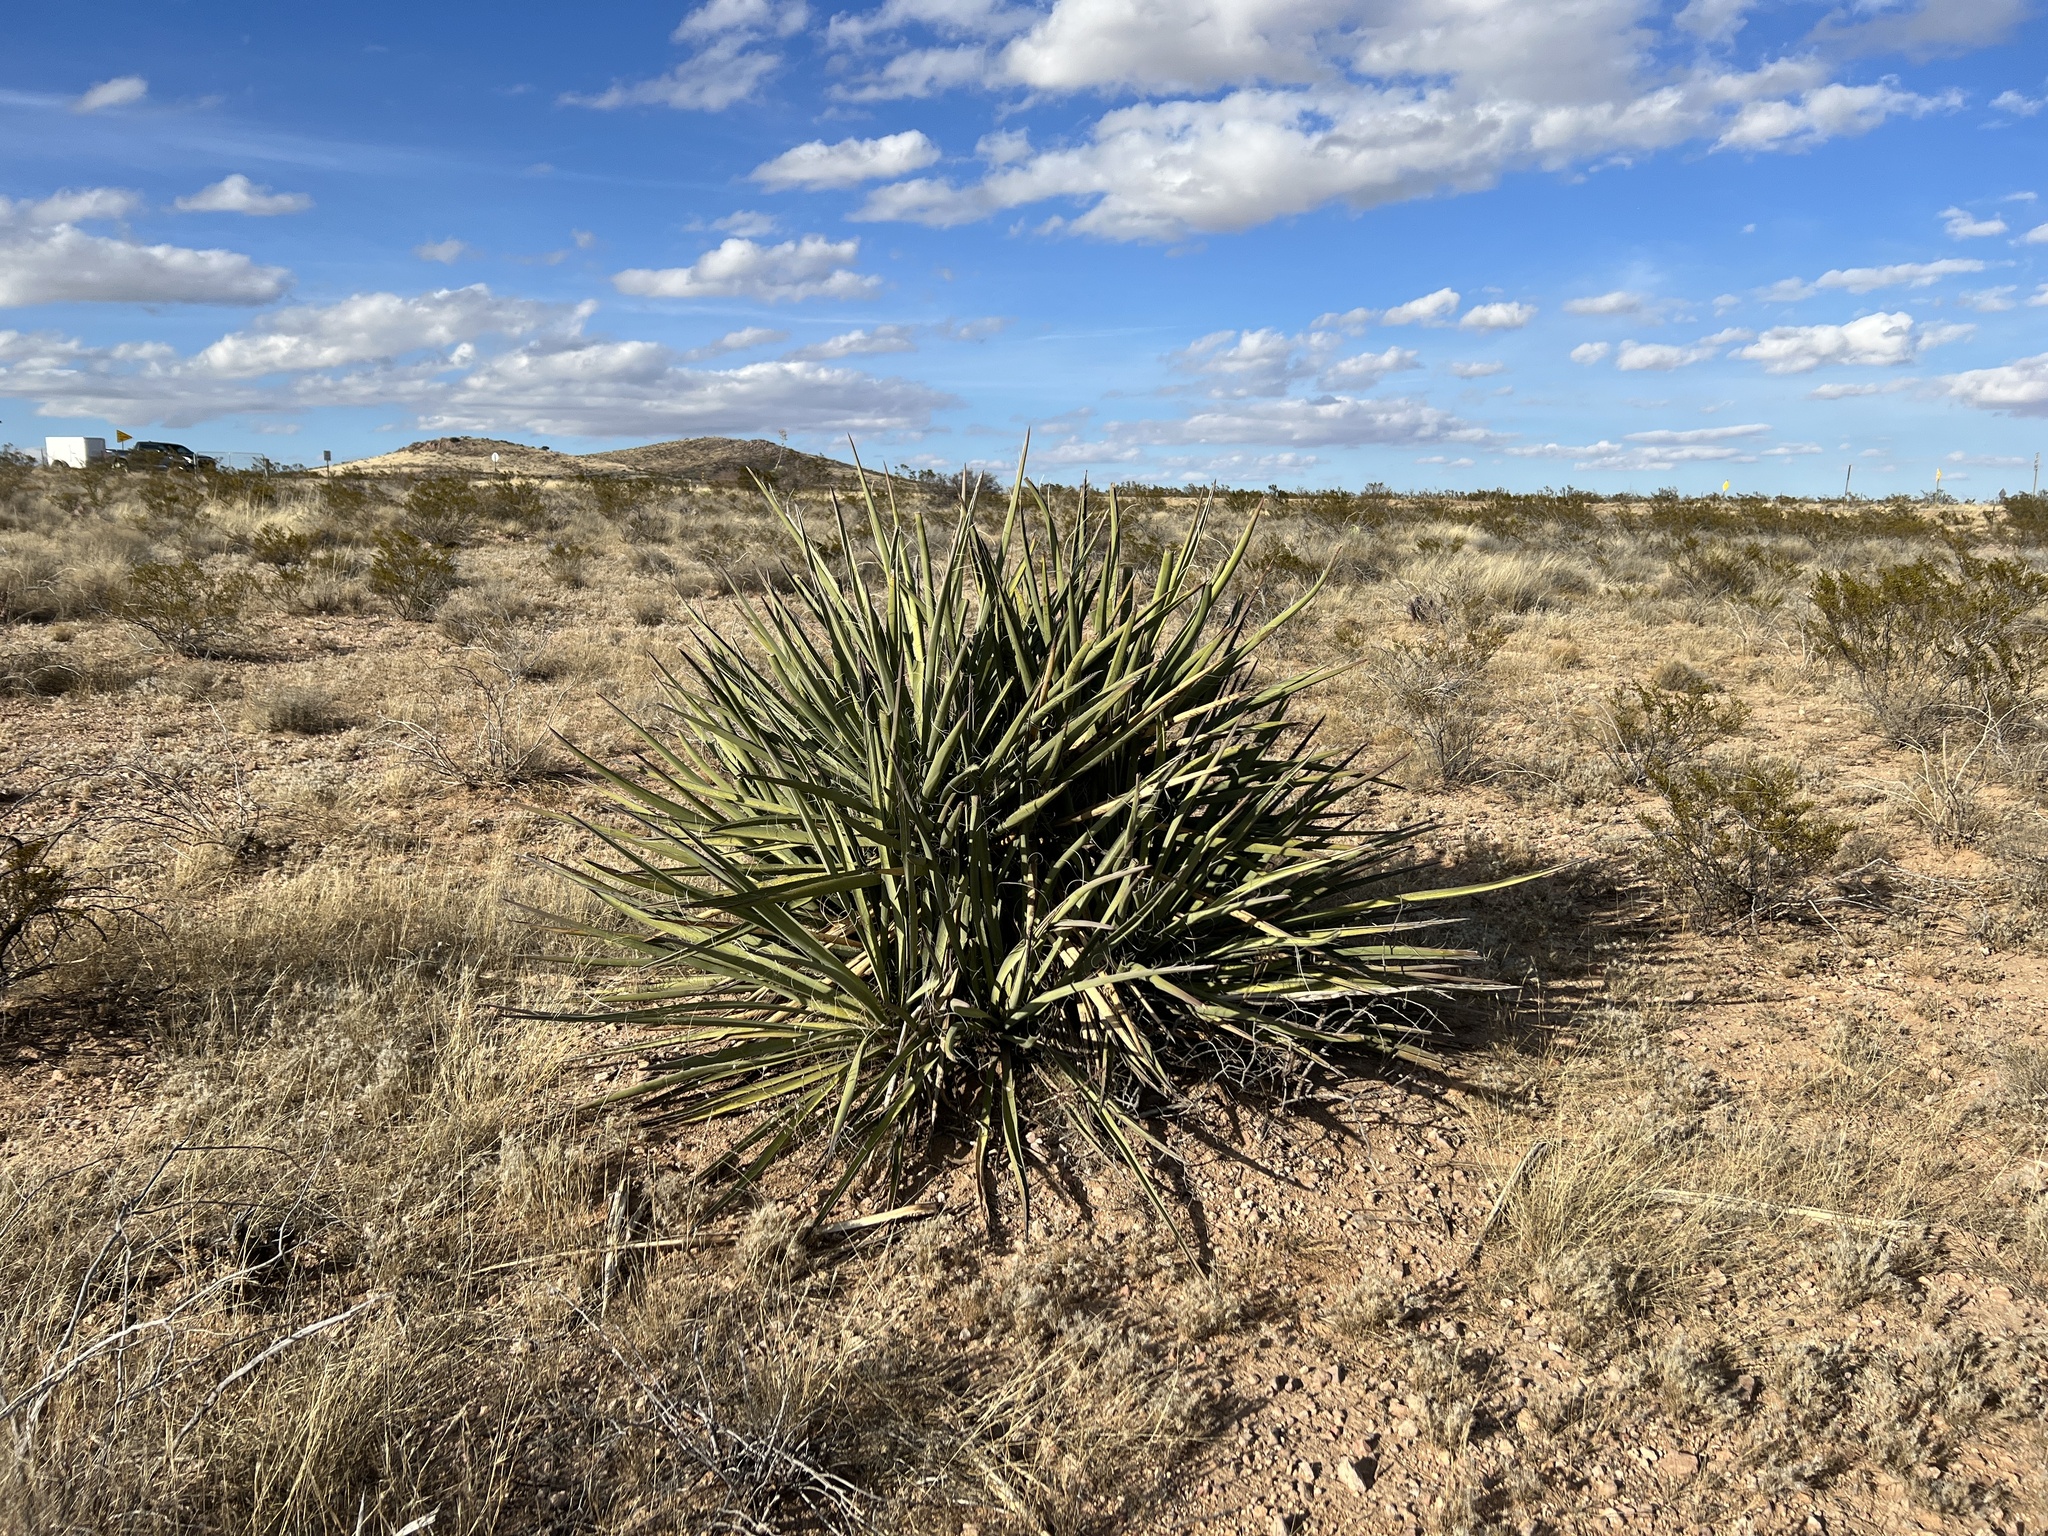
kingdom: Plantae
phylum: Tracheophyta
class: Liliopsida
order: Asparagales
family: Asparagaceae
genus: Yucca
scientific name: Yucca baccata
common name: Banana yucca
